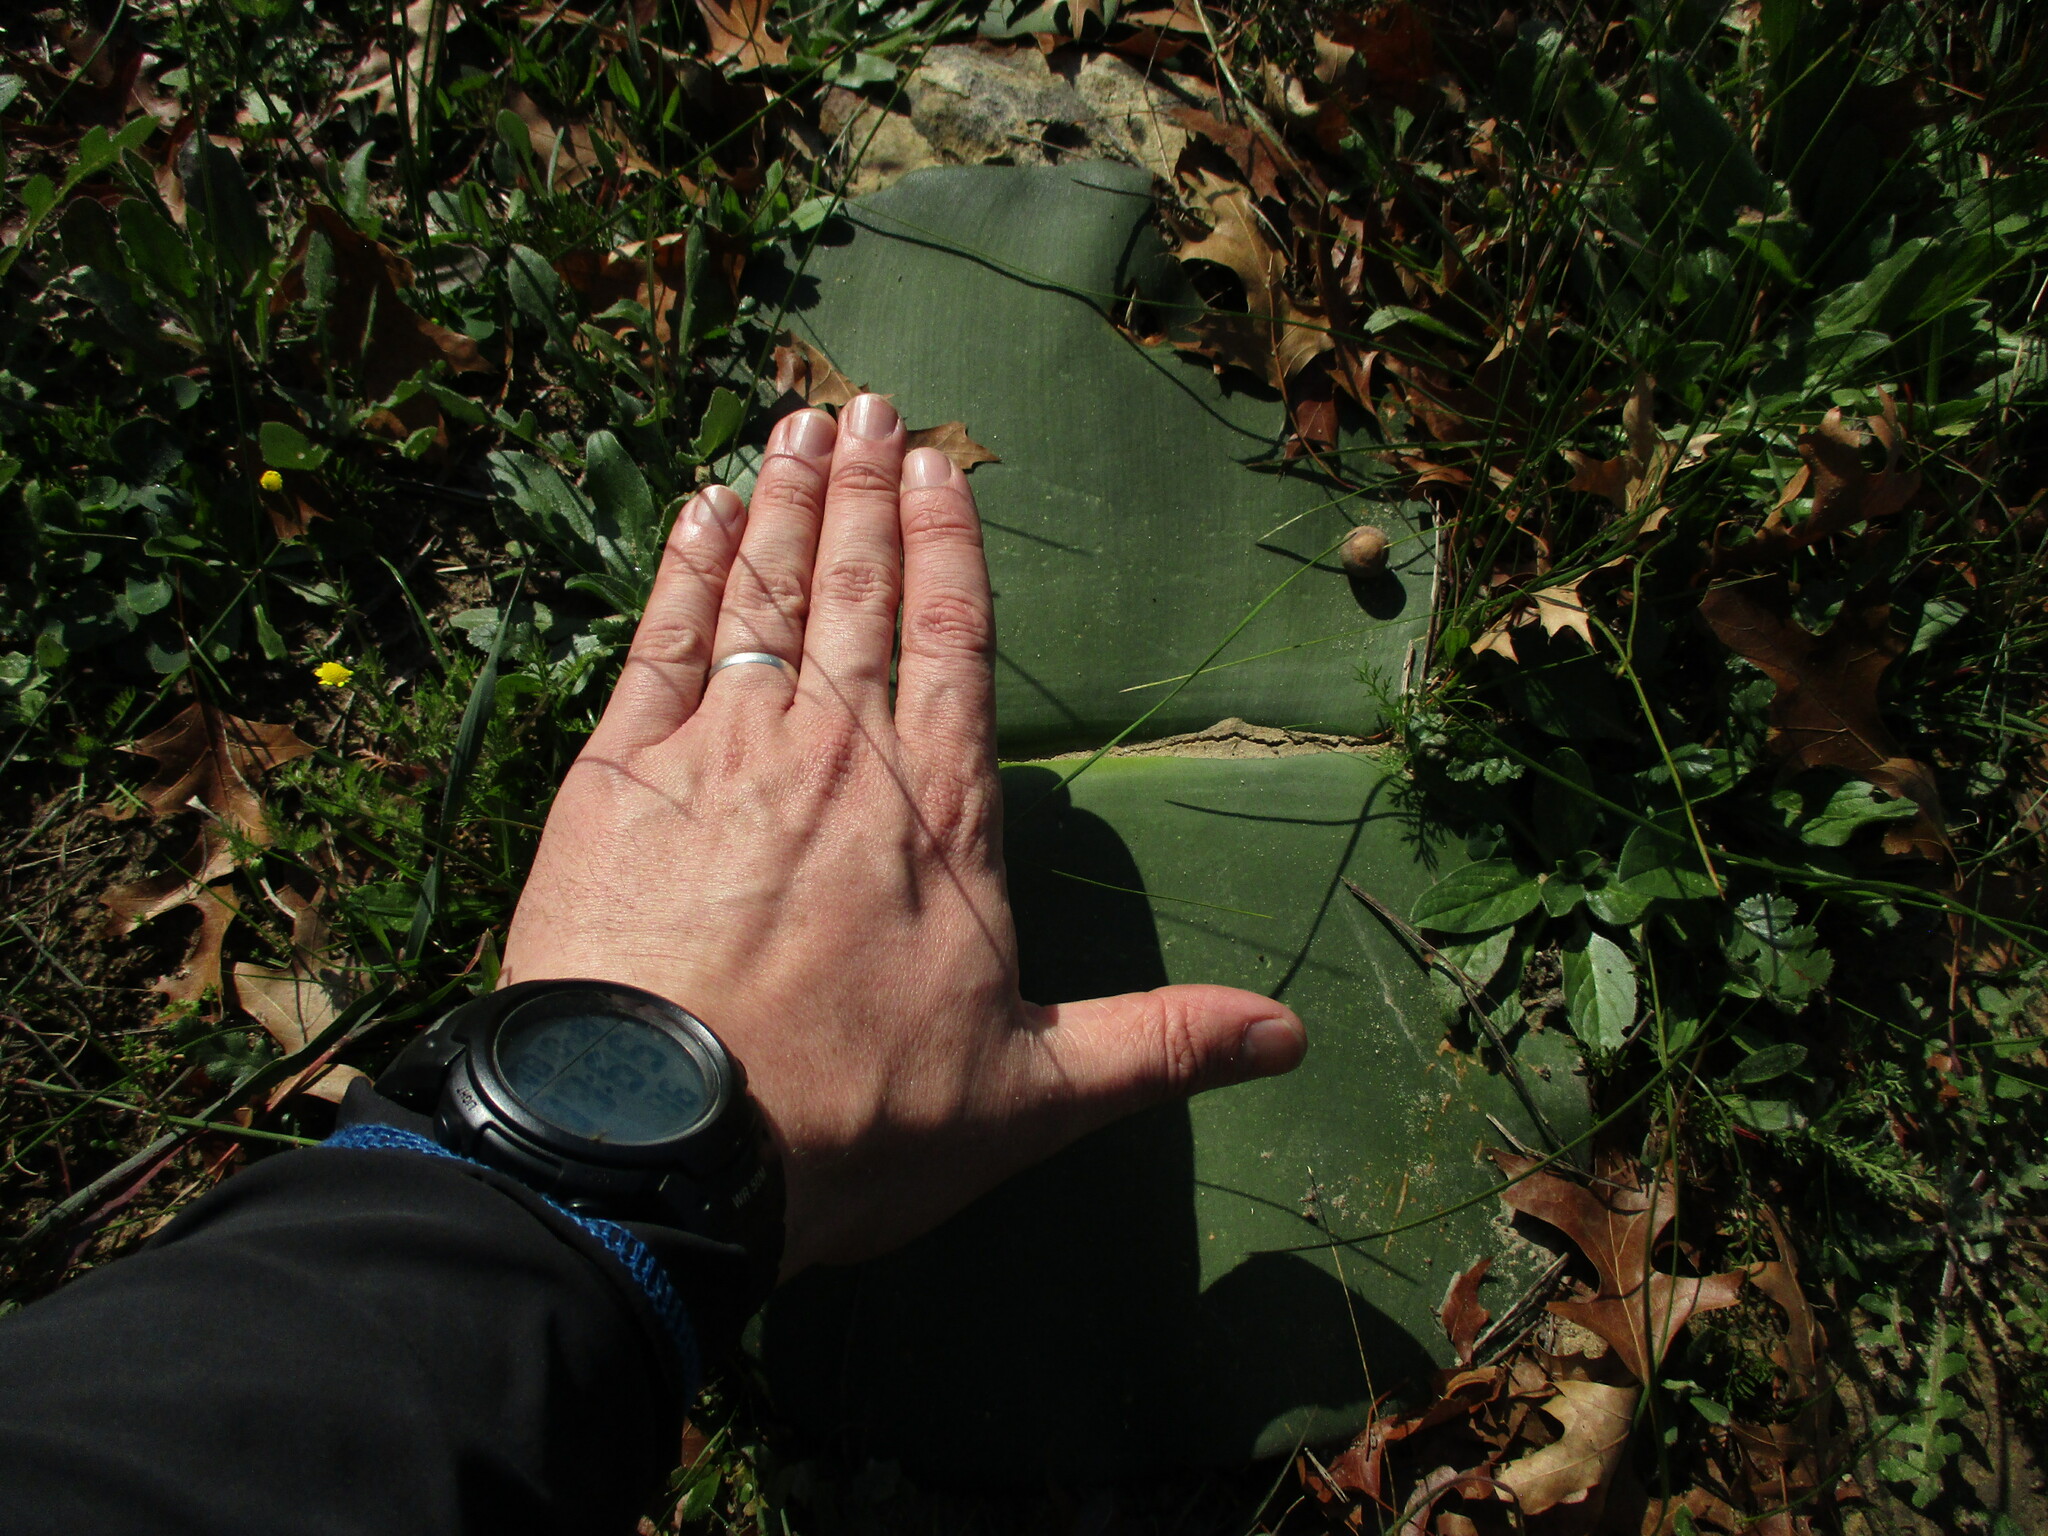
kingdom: Plantae
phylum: Tracheophyta
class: Liliopsida
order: Asparagales
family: Amaryllidaceae
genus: Haemanthus
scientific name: Haemanthus sanguineus
